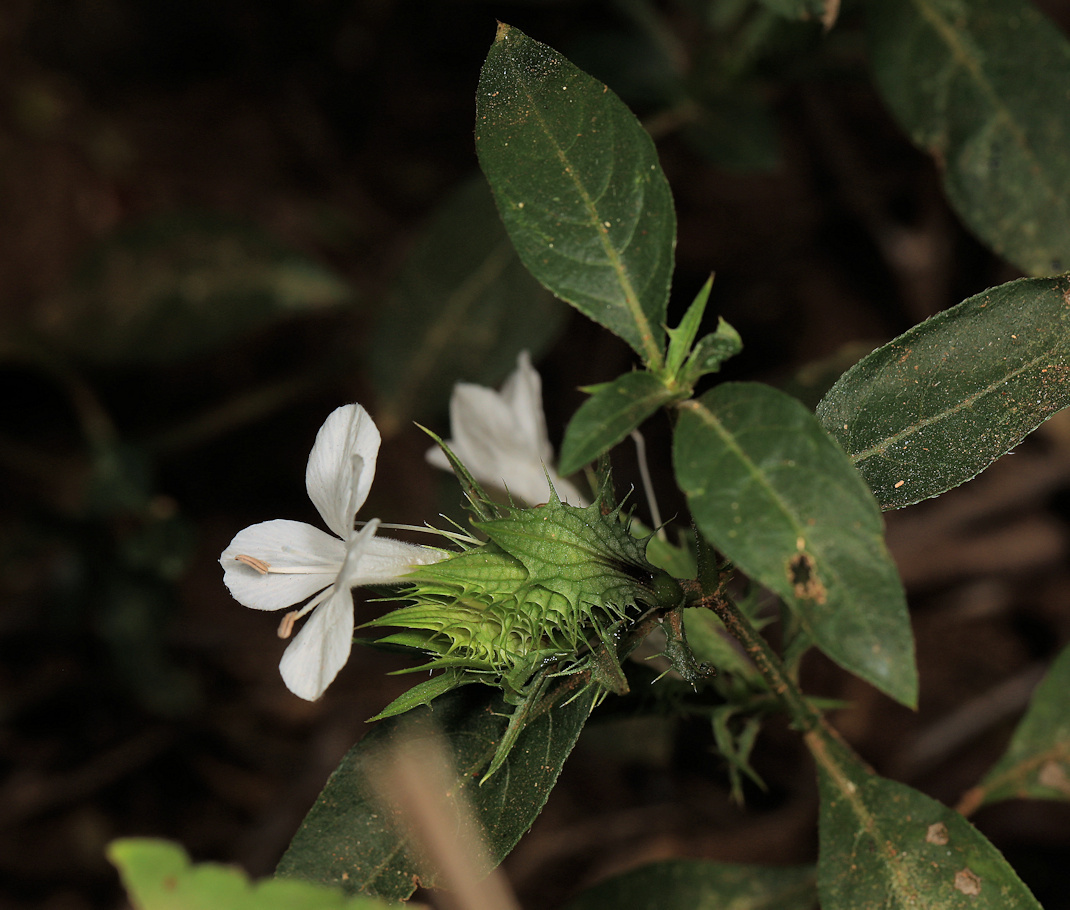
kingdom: Plantae
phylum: Tracheophyta
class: Magnoliopsida
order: Lamiales
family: Acanthaceae
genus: Barleria
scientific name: Barleria elegans
